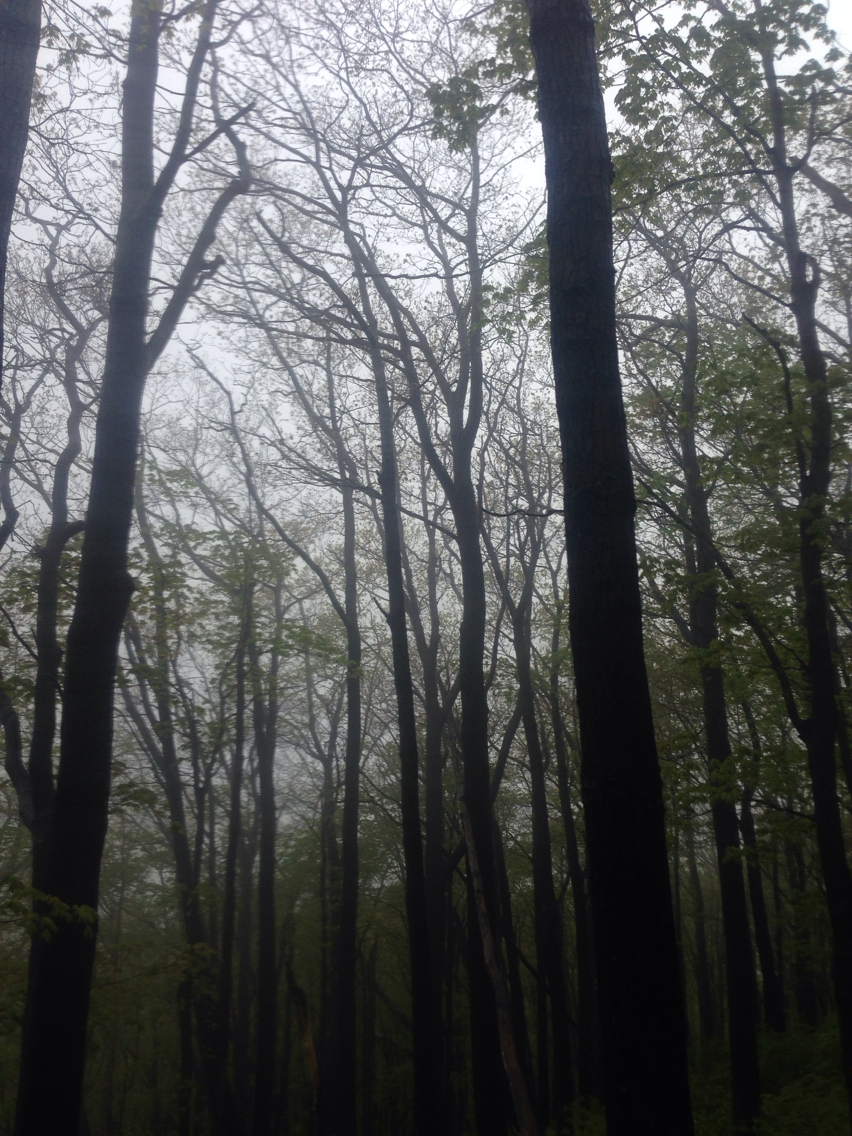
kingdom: Plantae
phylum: Tracheophyta
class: Magnoliopsida
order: Fagales
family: Fagaceae
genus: Quercus
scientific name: Quercus rubra
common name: Red oak
